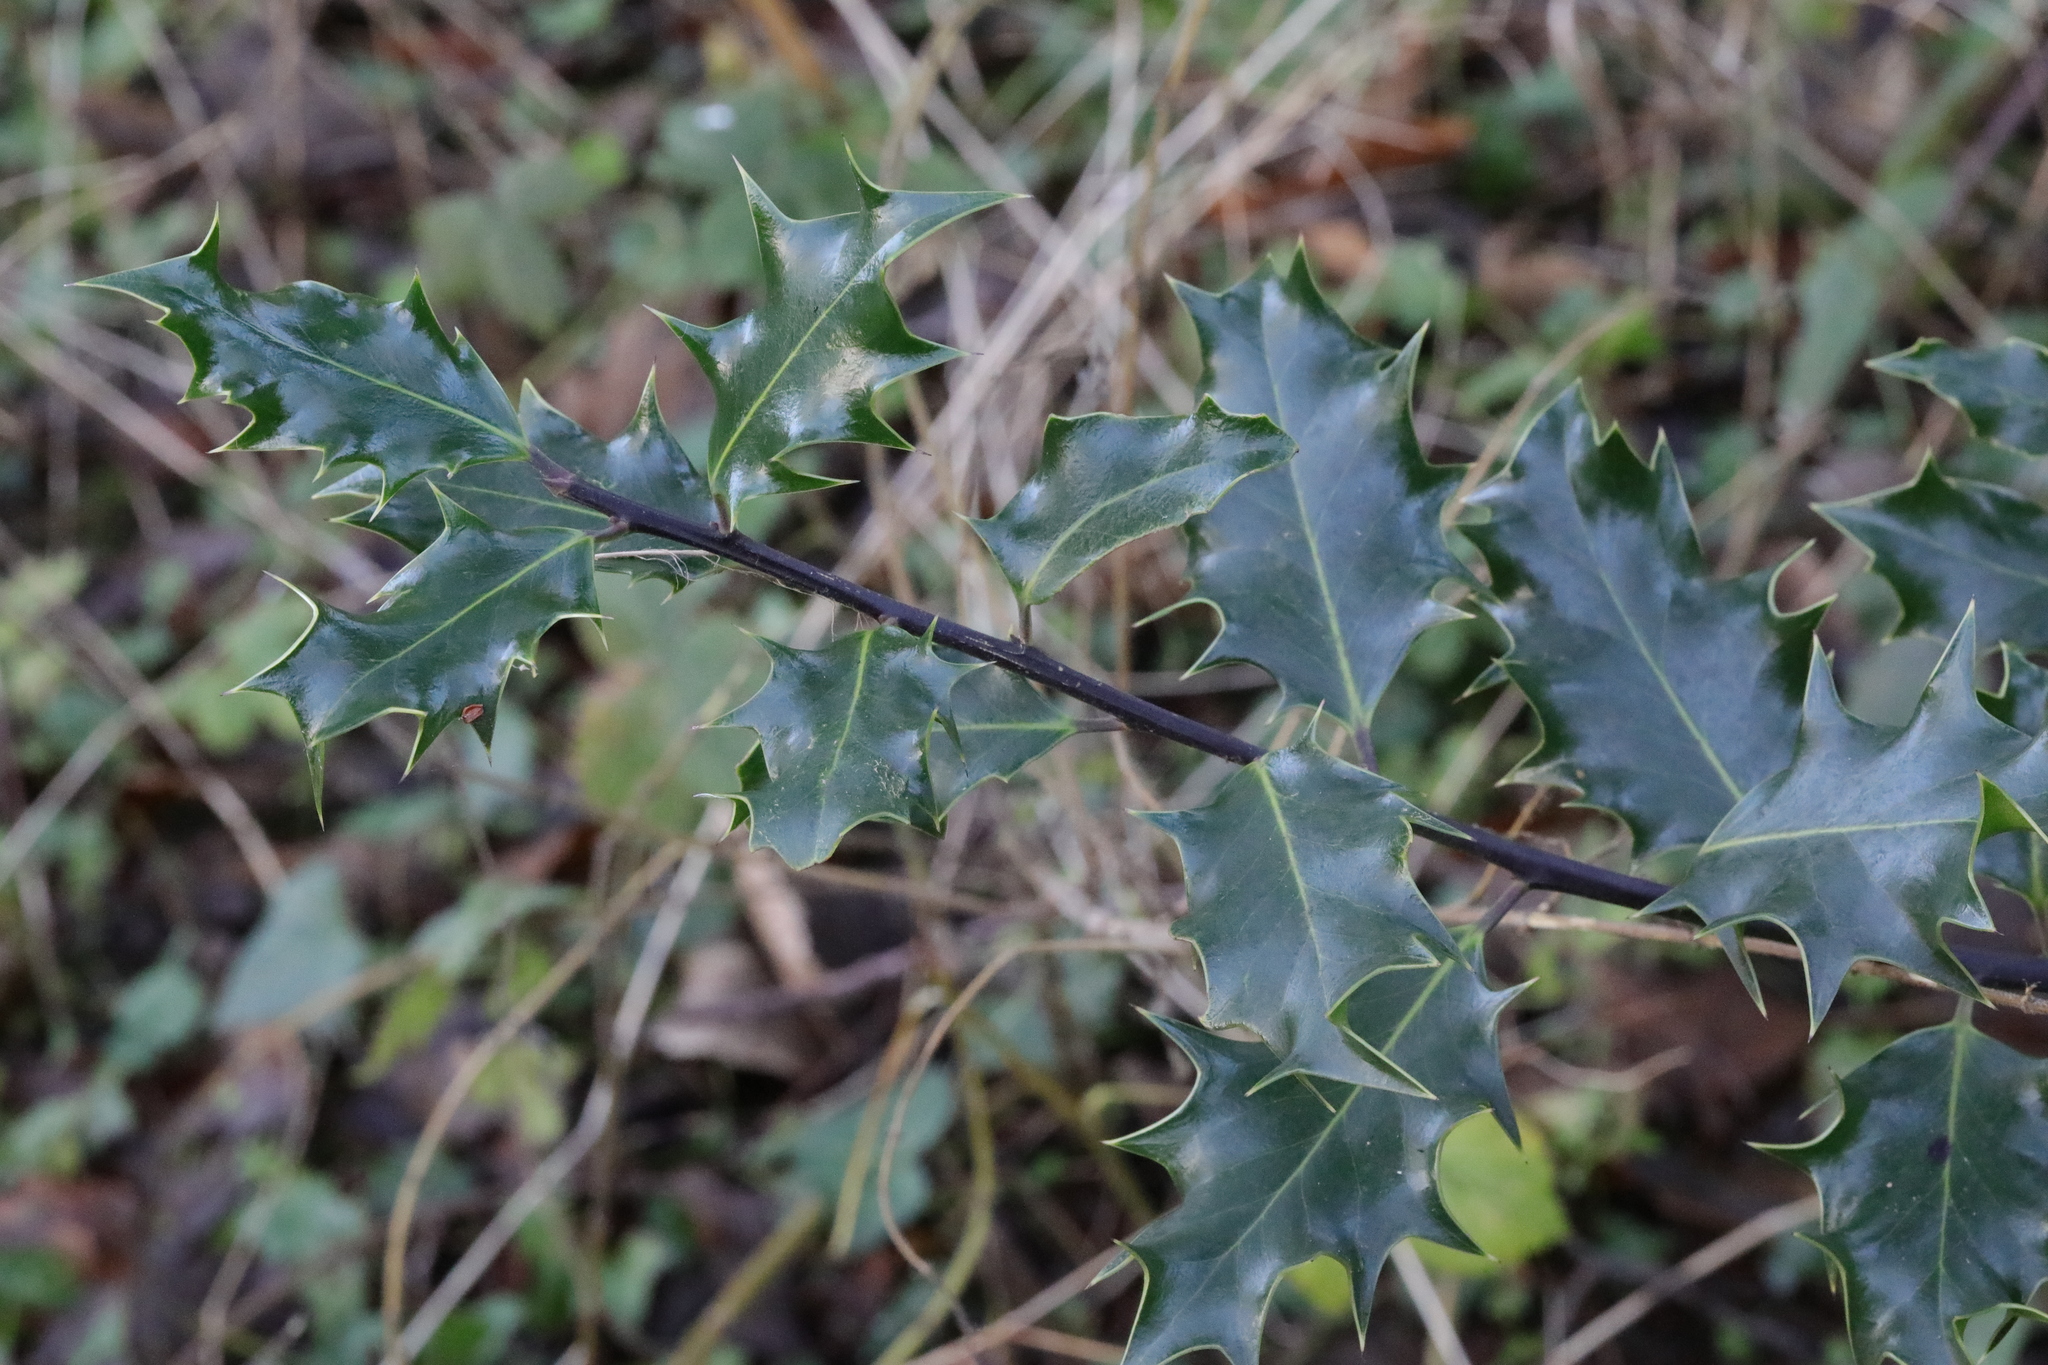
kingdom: Plantae
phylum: Tracheophyta
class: Magnoliopsida
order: Aquifoliales
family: Aquifoliaceae
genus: Ilex
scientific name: Ilex aquifolium
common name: English holly
